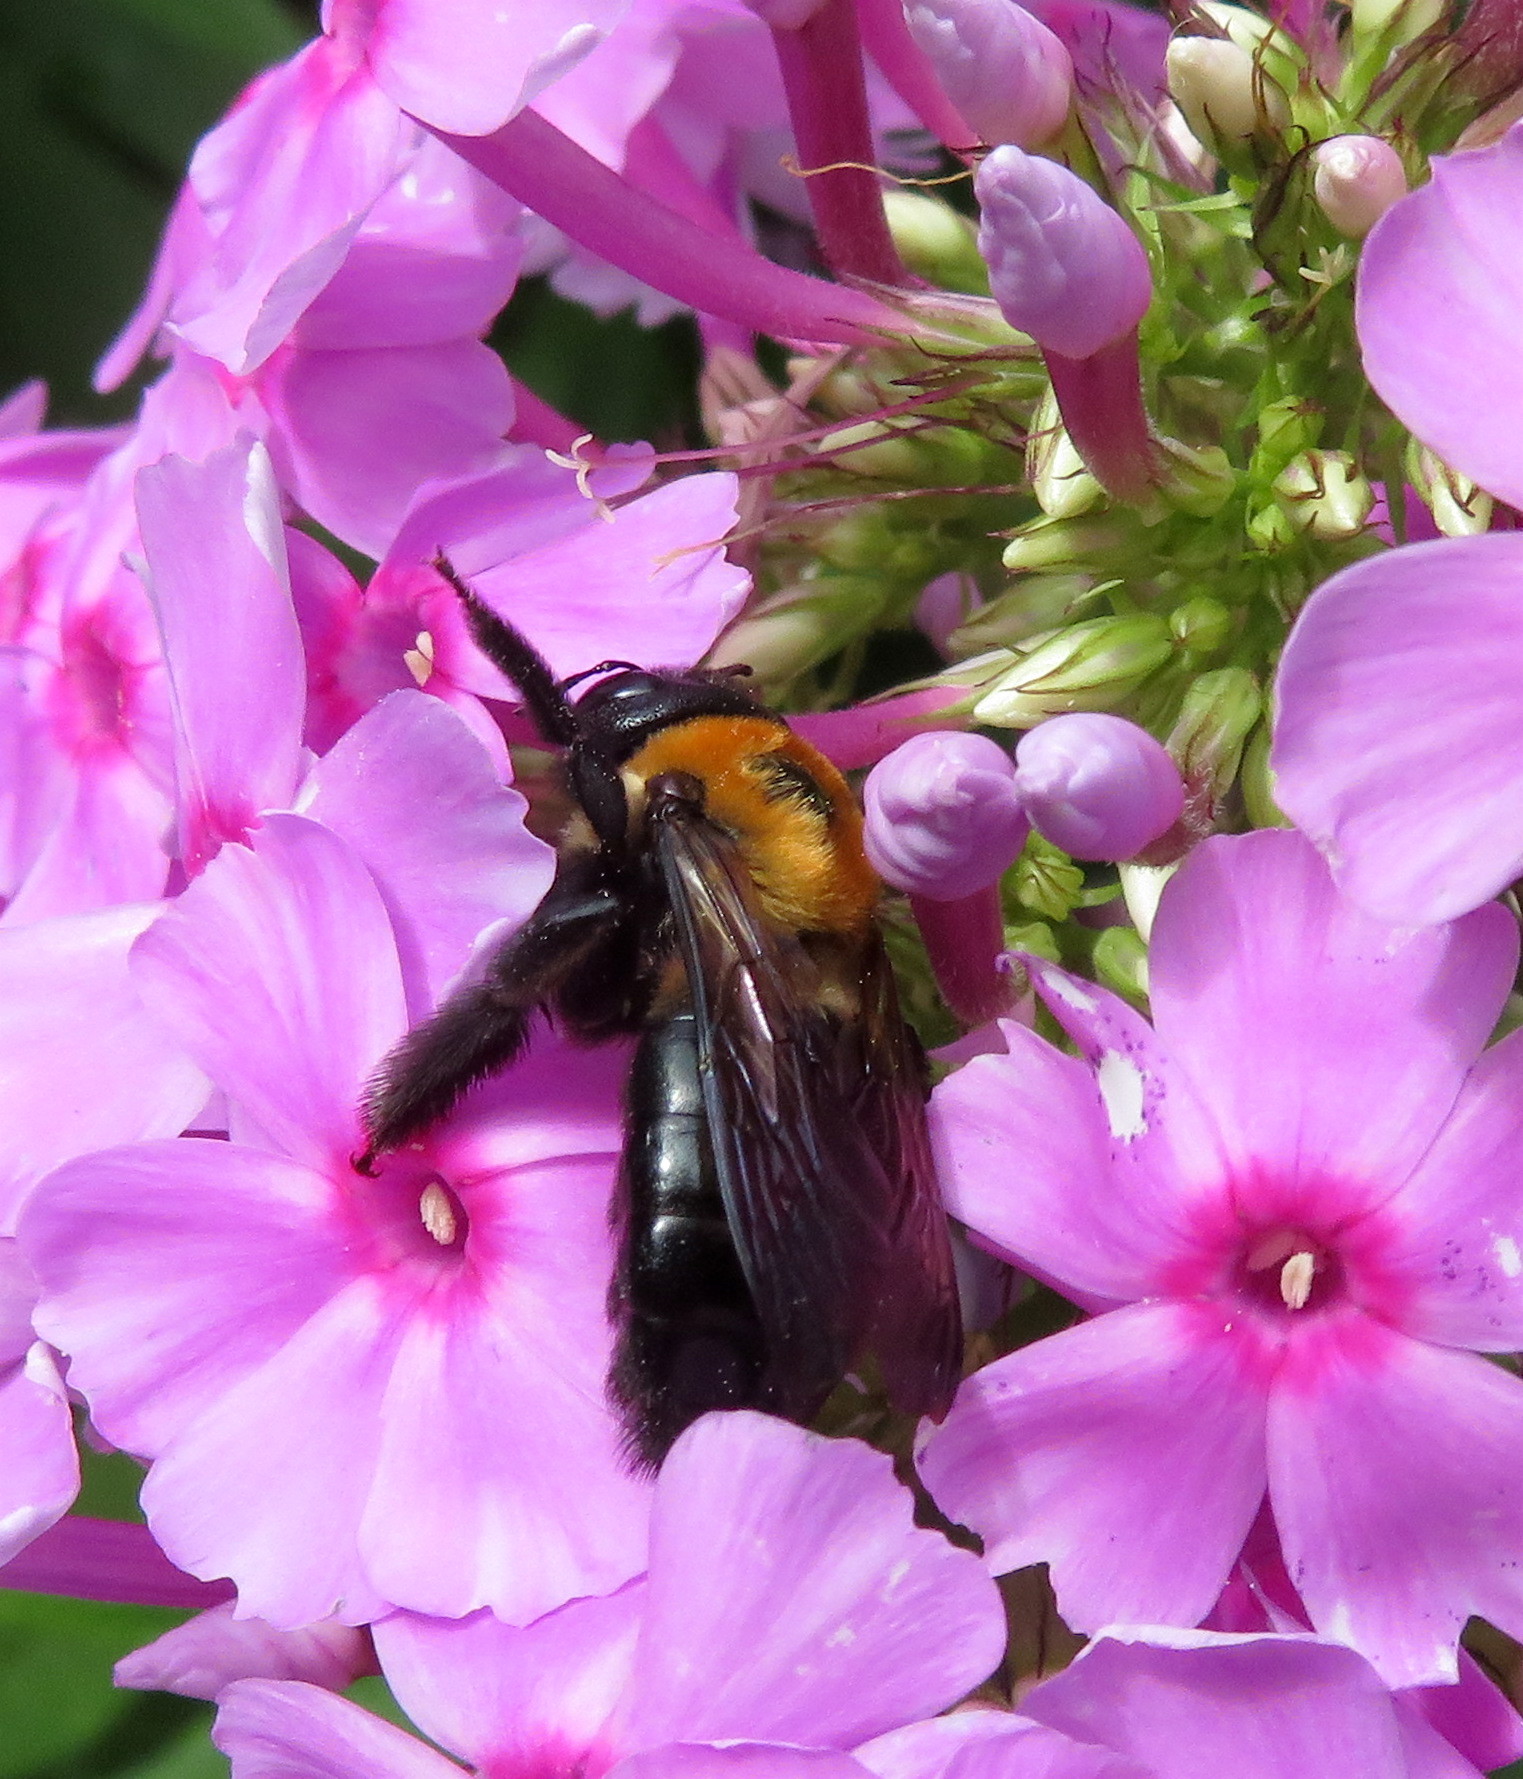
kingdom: Animalia
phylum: Arthropoda
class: Insecta
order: Hymenoptera
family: Apidae
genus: Xylocopa
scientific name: Xylocopa virginica
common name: Carpenter bee
